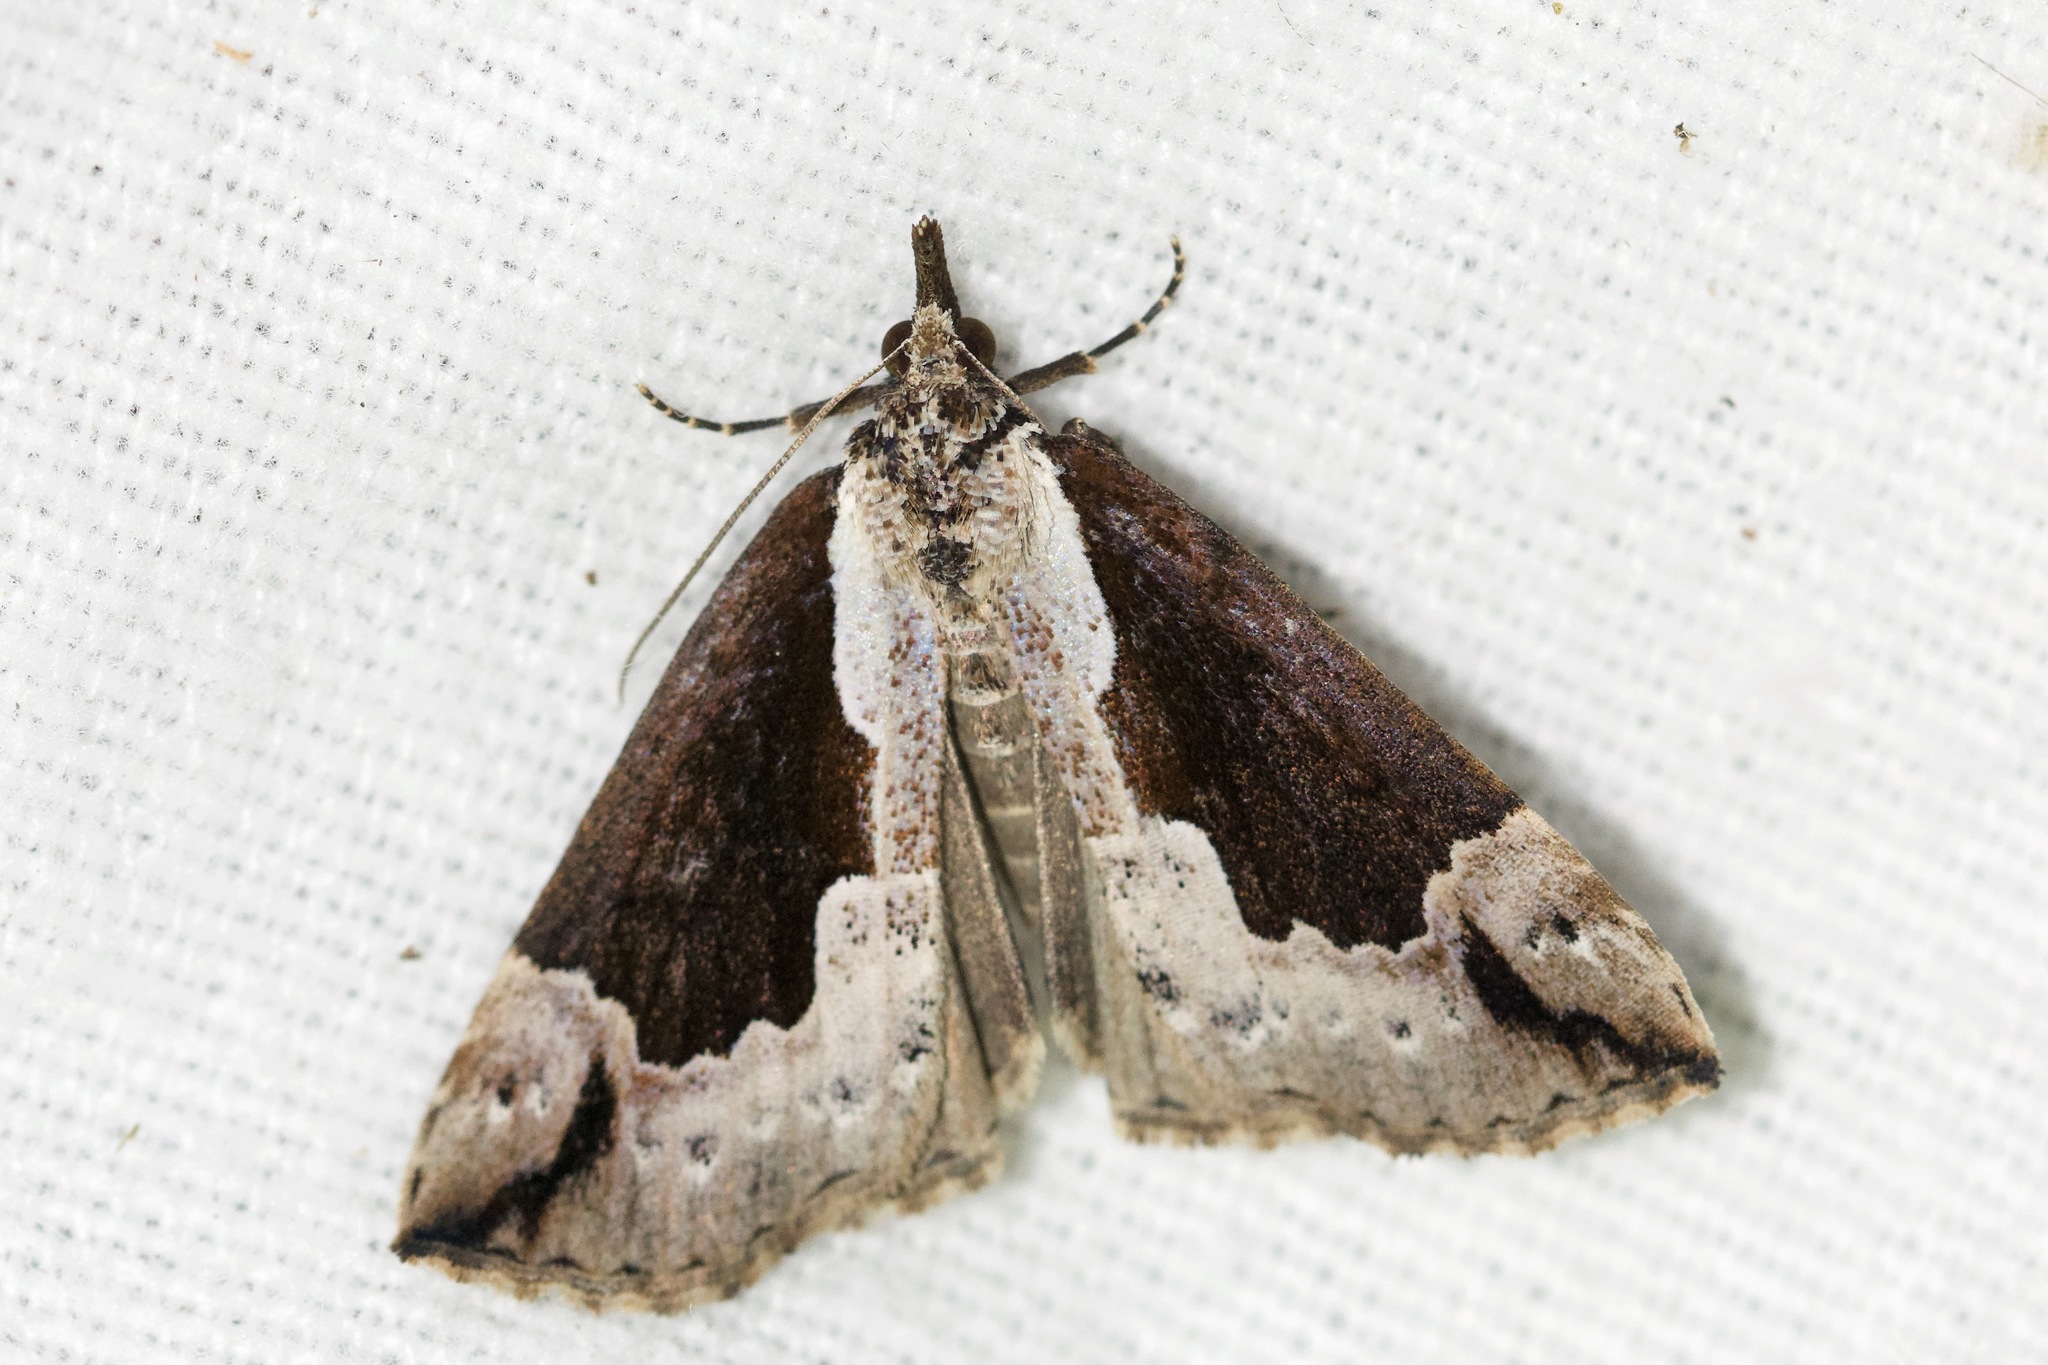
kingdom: Animalia
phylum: Arthropoda
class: Insecta
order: Lepidoptera
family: Erebidae
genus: Hypena
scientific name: Hypena baltimoralis
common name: Baltimore snout
